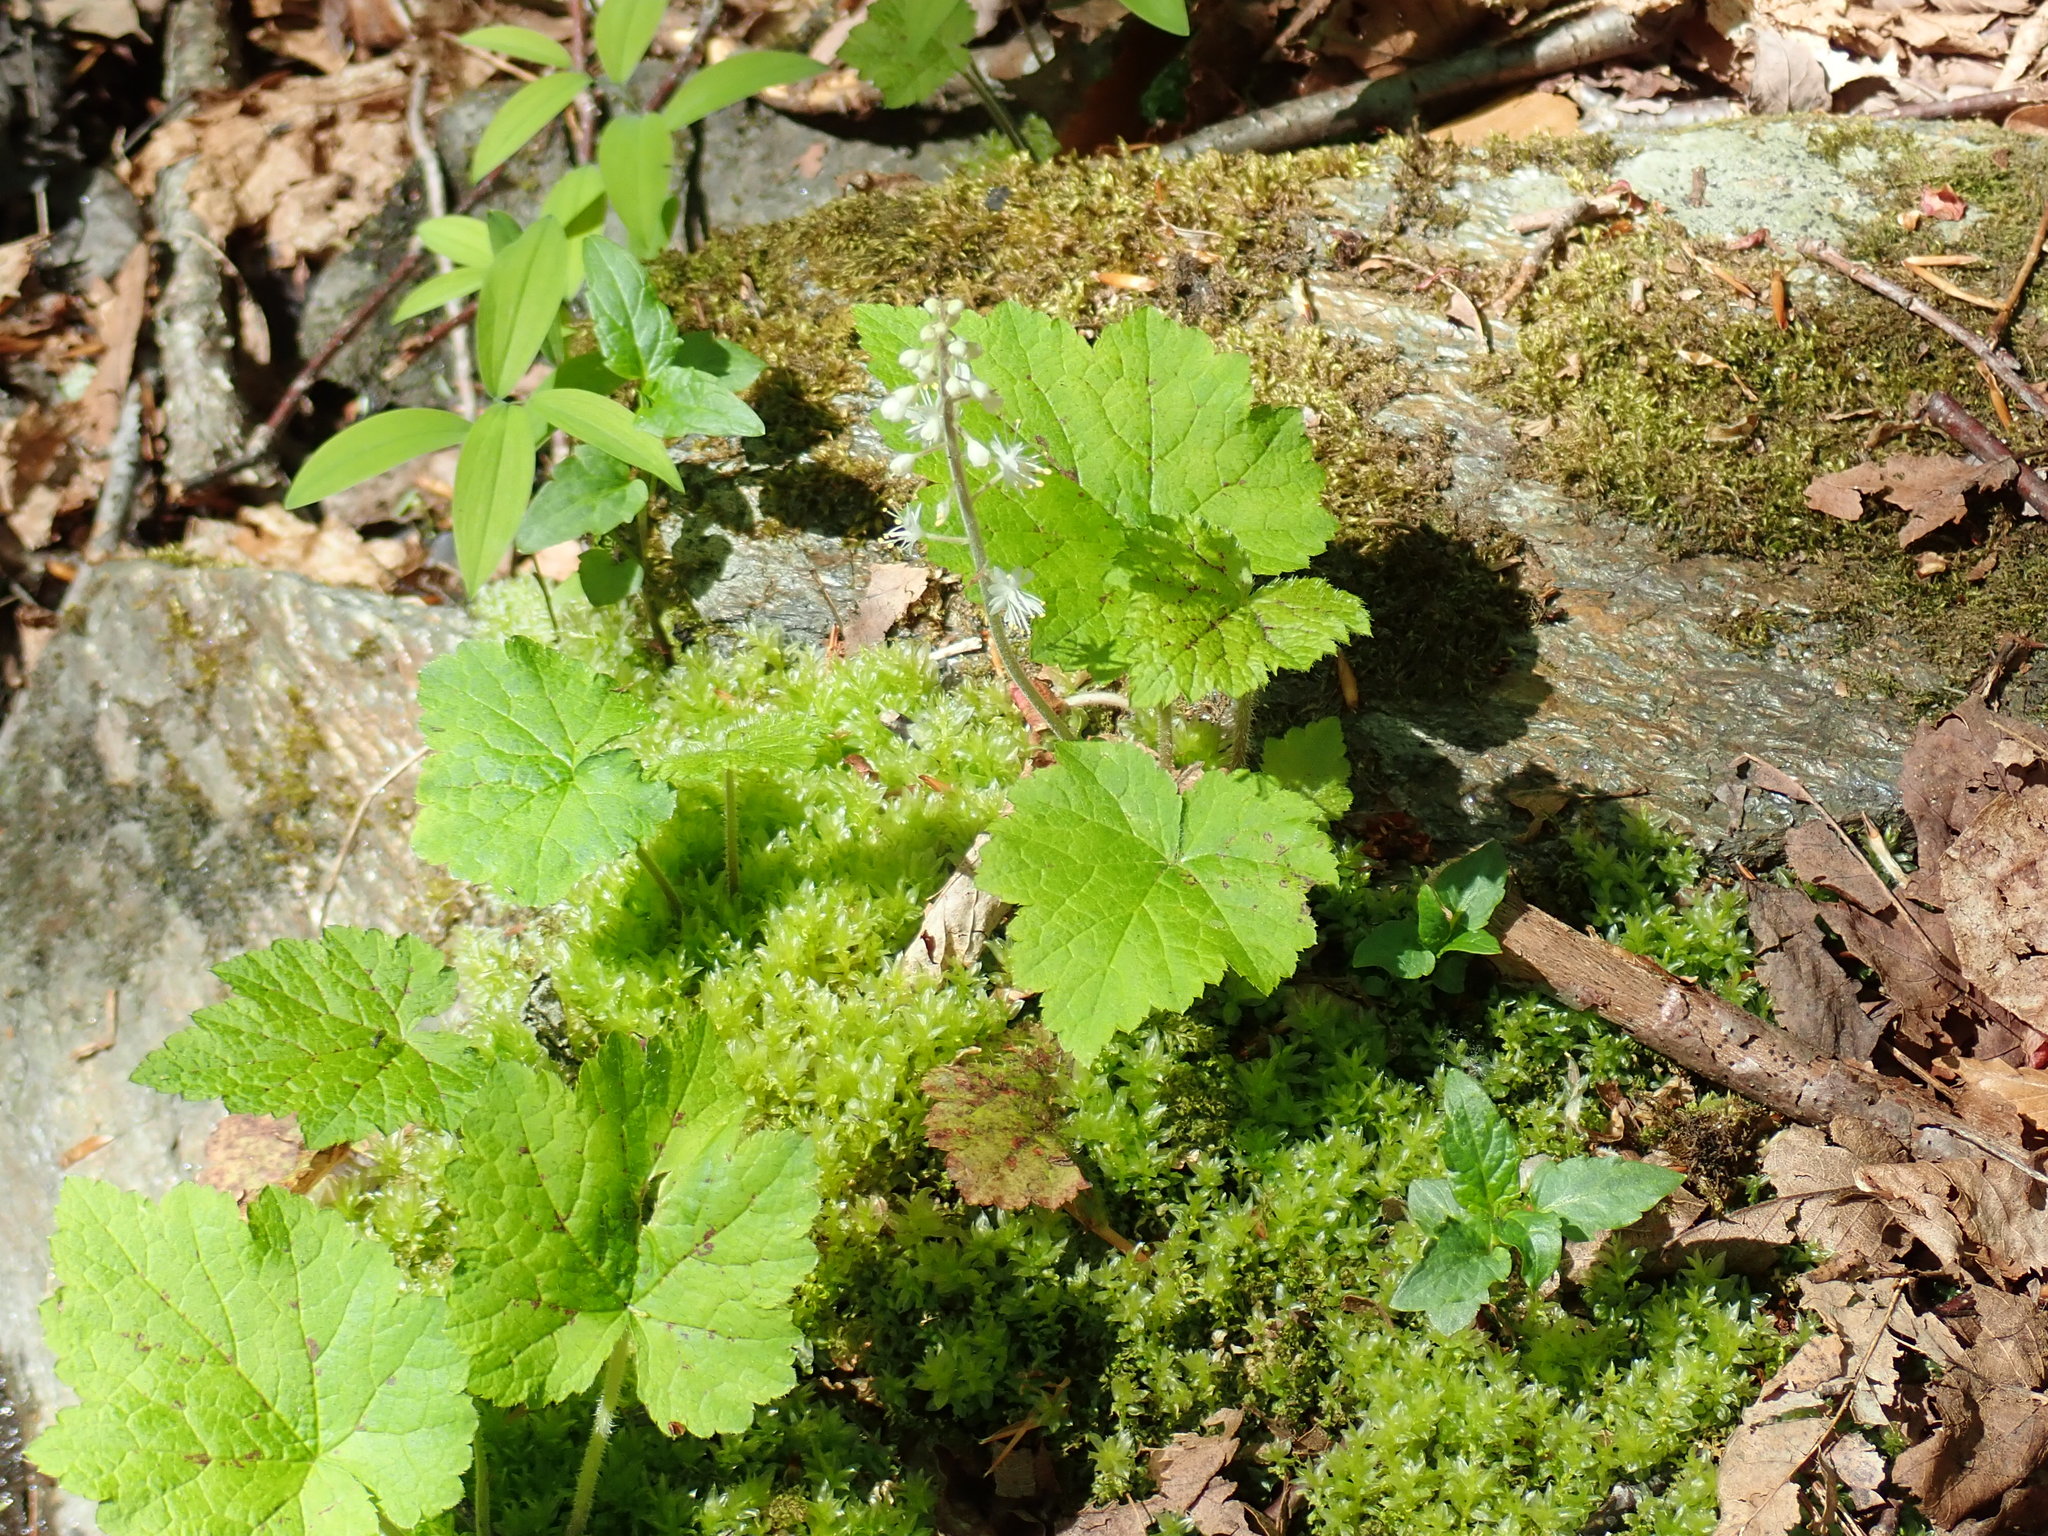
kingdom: Plantae
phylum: Tracheophyta
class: Magnoliopsida
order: Saxifragales
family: Saxifragaceae
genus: Tiarella
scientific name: Tiarella stolonifera
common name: Stoloniferous foamflower
